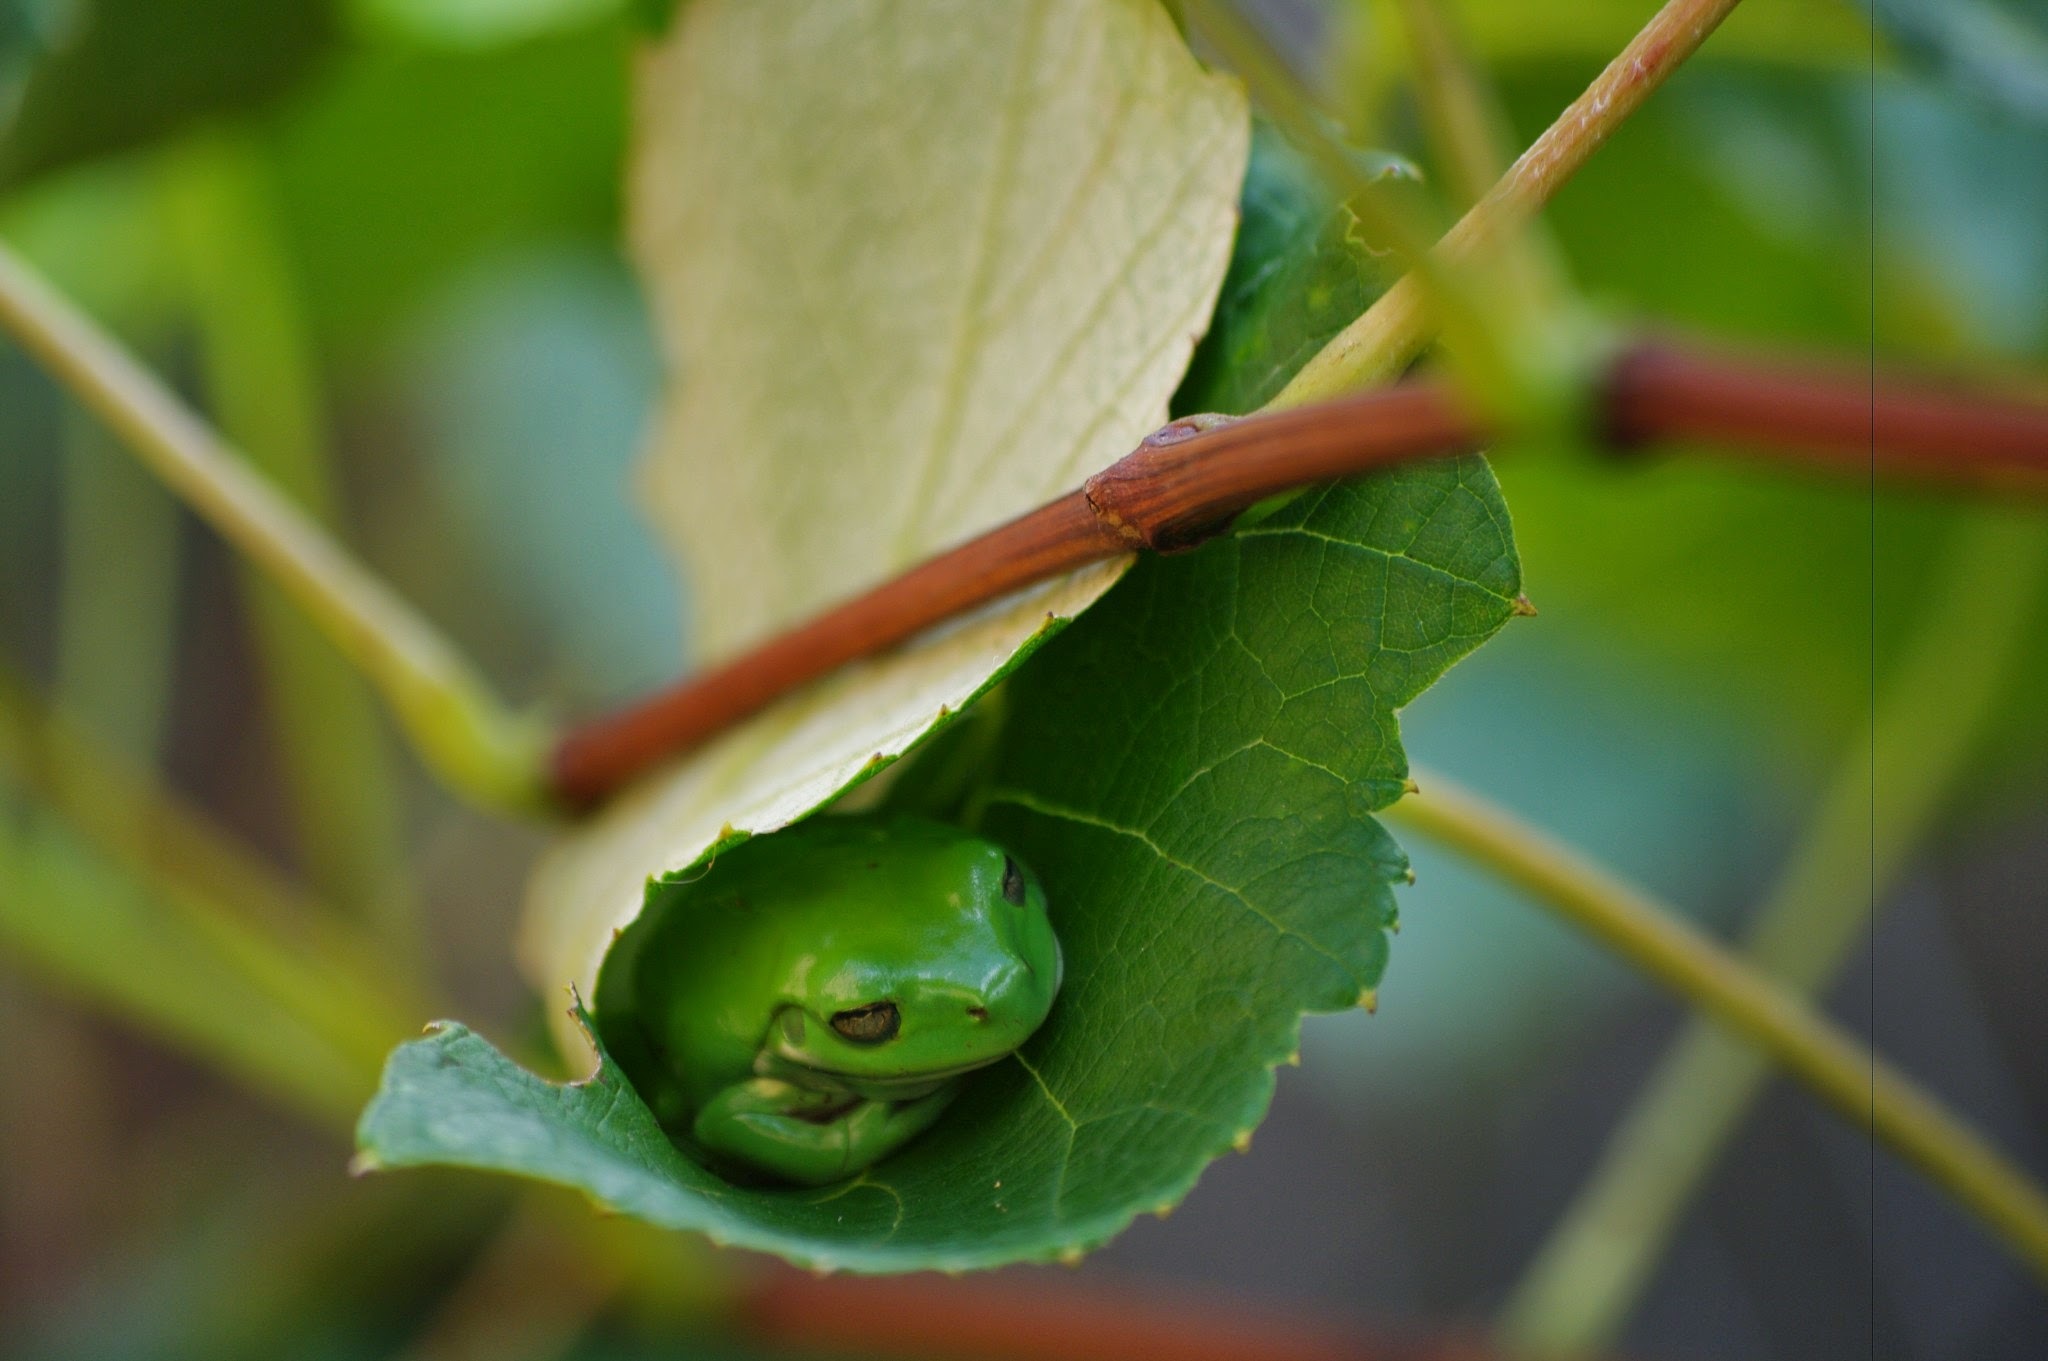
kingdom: Animalia
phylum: Chordata
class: Amphibia
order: Anura
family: Pelodryadidae
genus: Ranoidea
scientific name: Ranoidea caerulea
